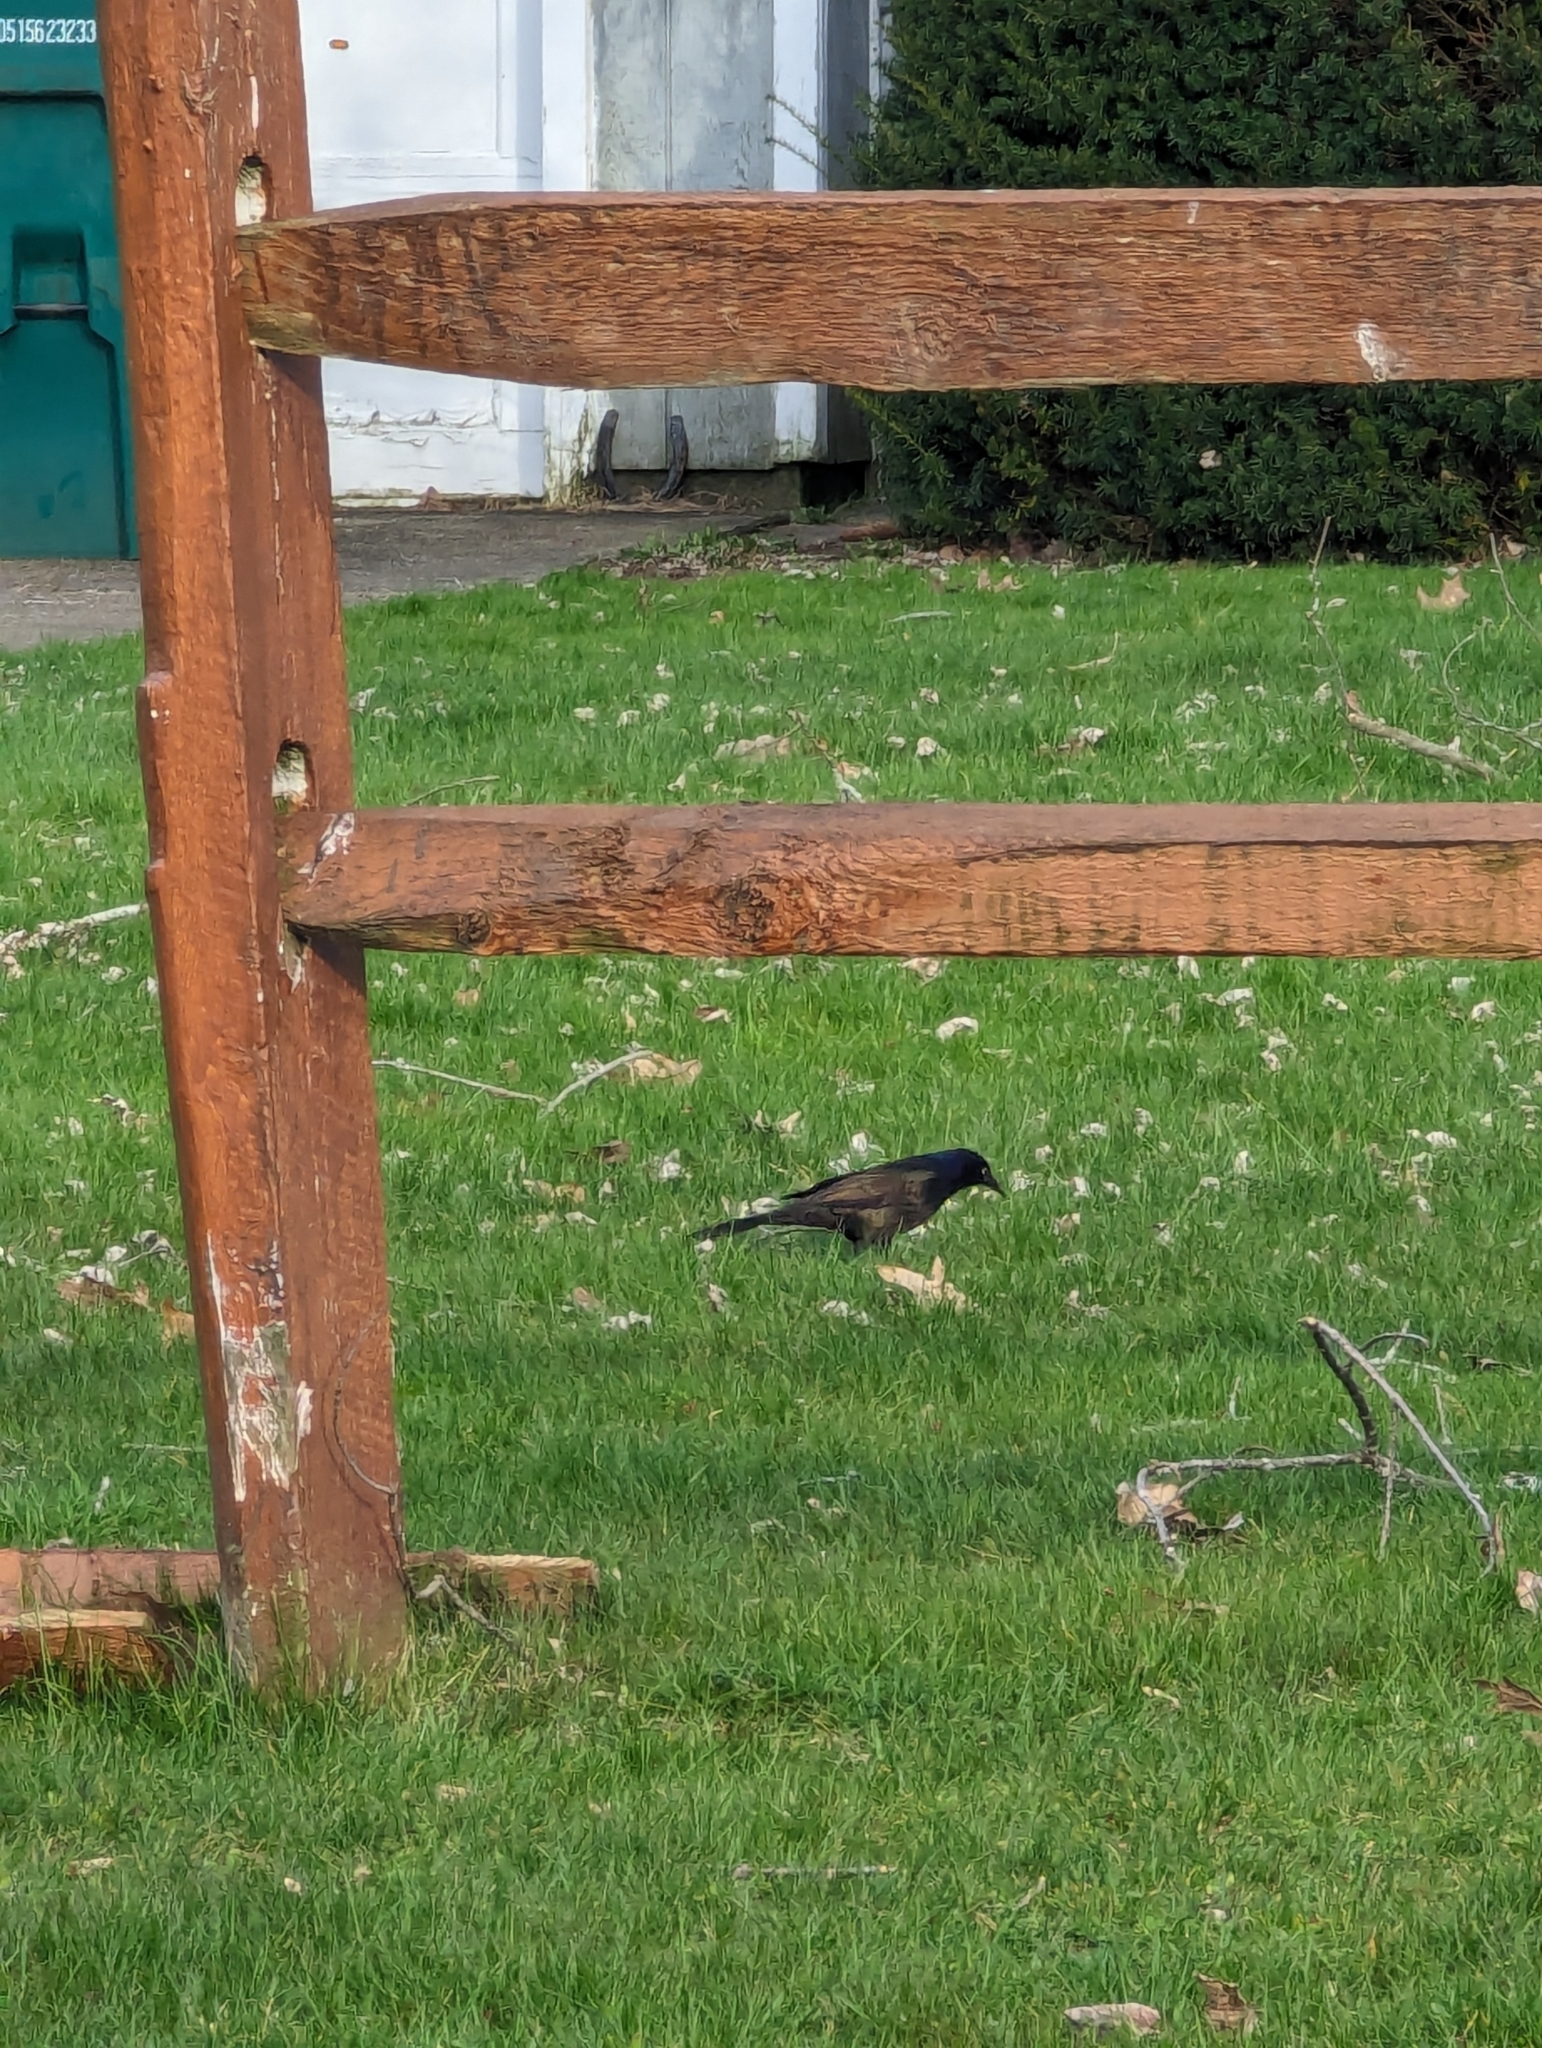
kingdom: Animalia
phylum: Chordata
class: Aves
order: Passeriformes
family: Icteridae
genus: Quiscalus
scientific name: Quiscalus quiscula
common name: Common grackle
